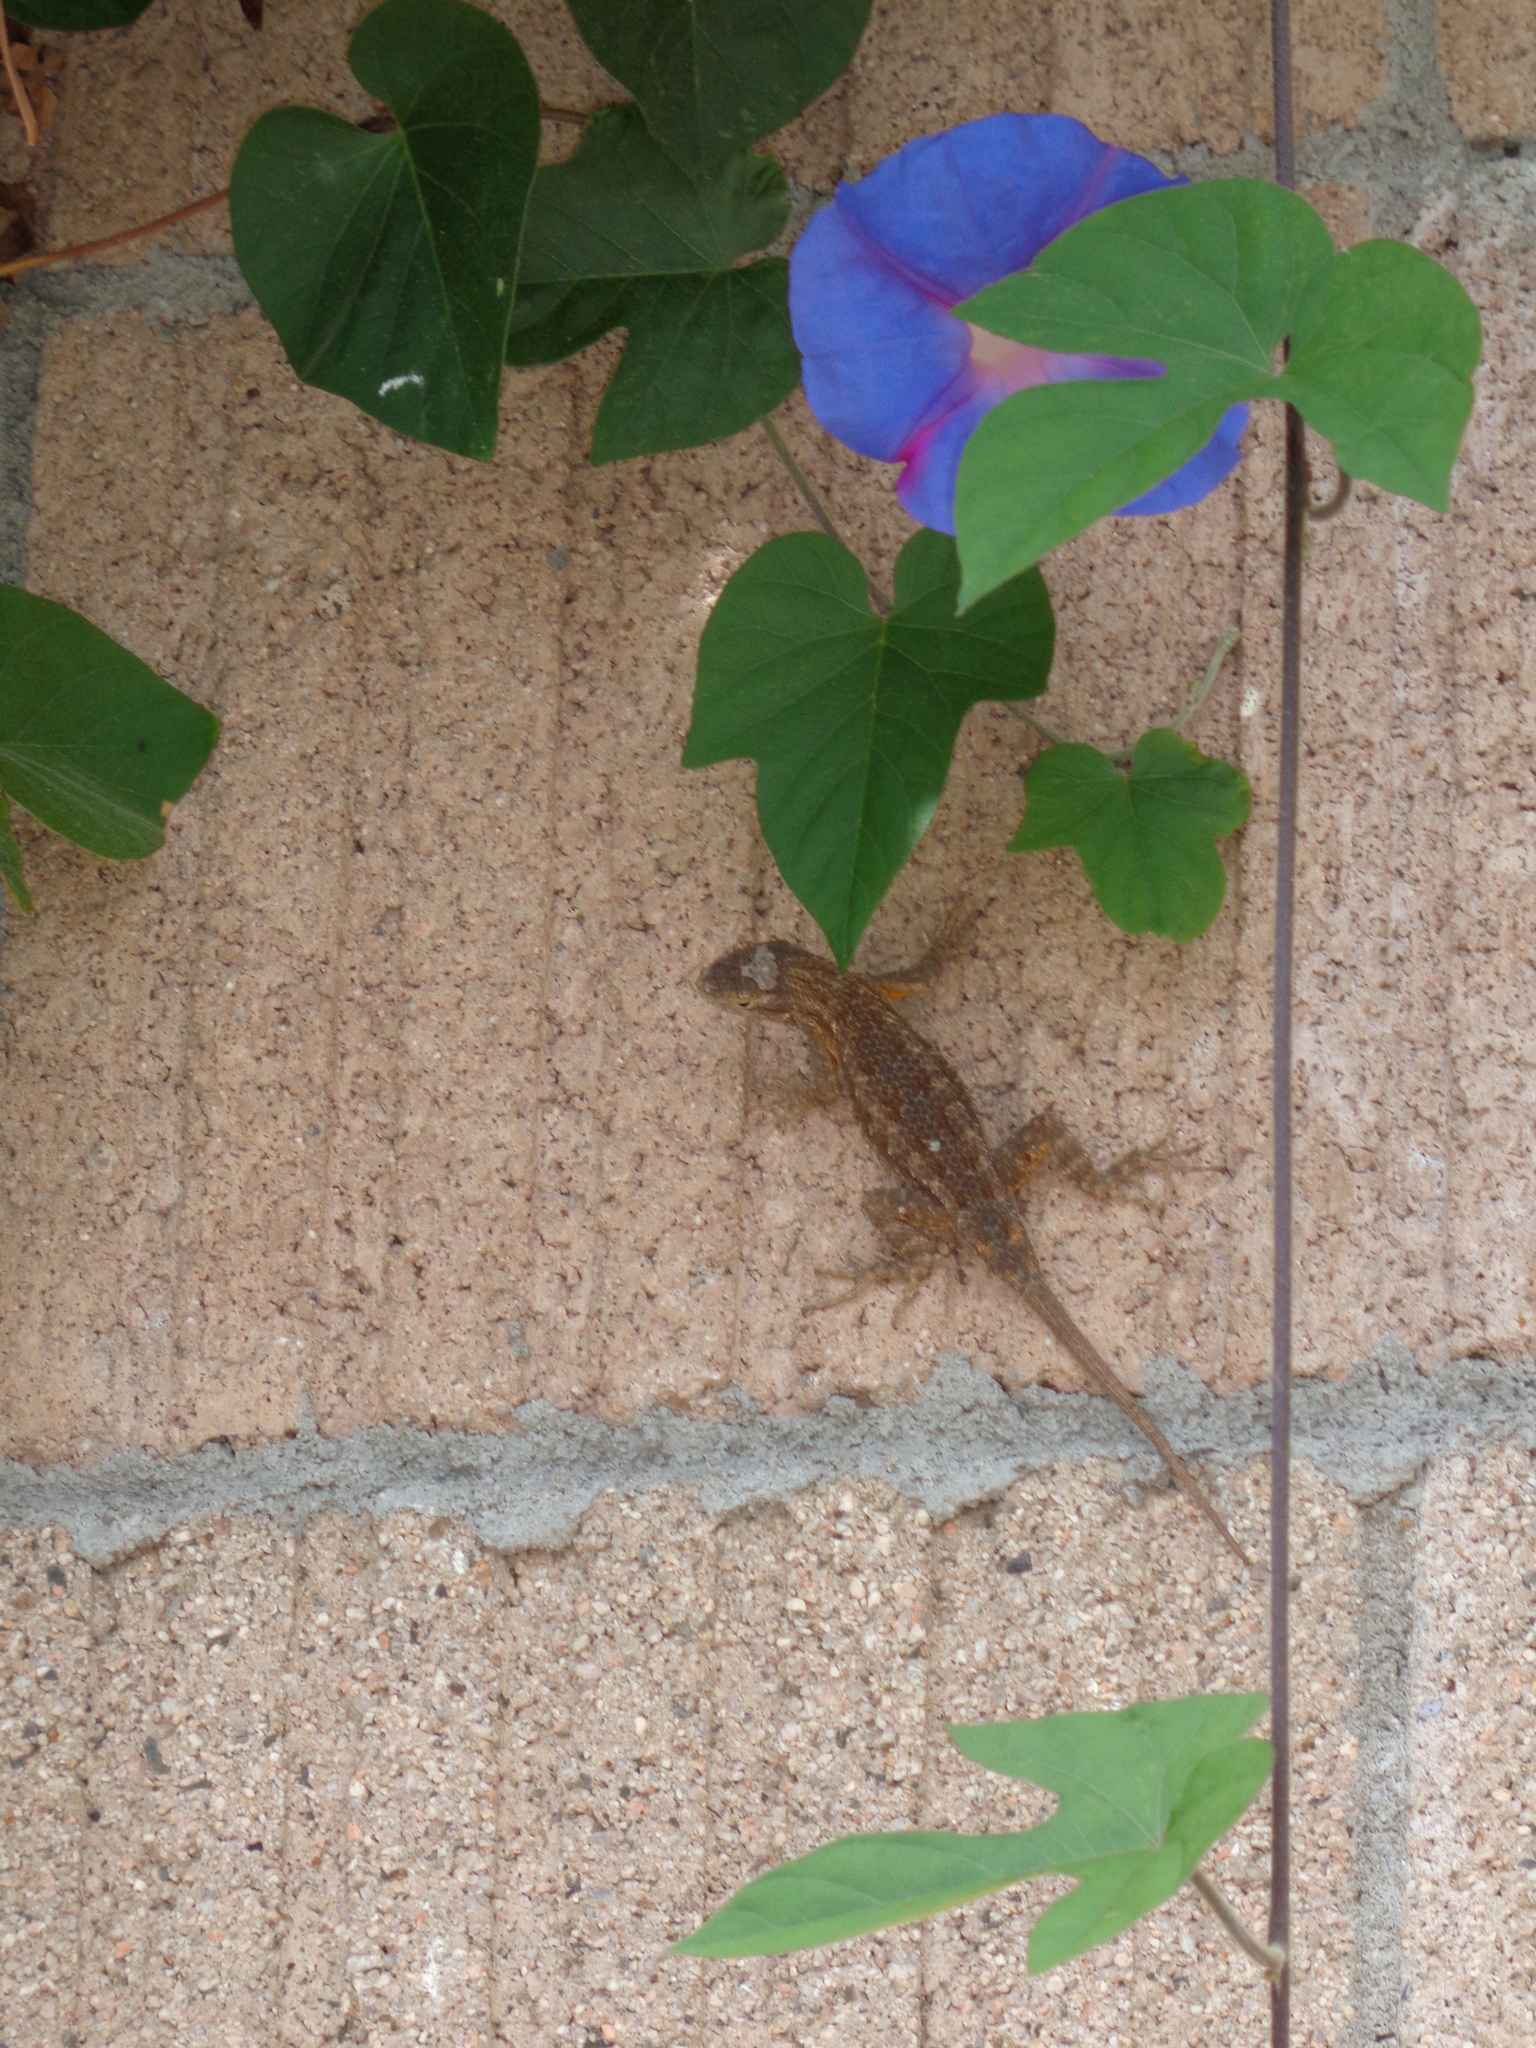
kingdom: Animalia
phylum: Chordata
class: Squamata
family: Phrynosomatidae
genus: Sceloporus
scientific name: Sceloporus occidentalis
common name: Western fence lizard
